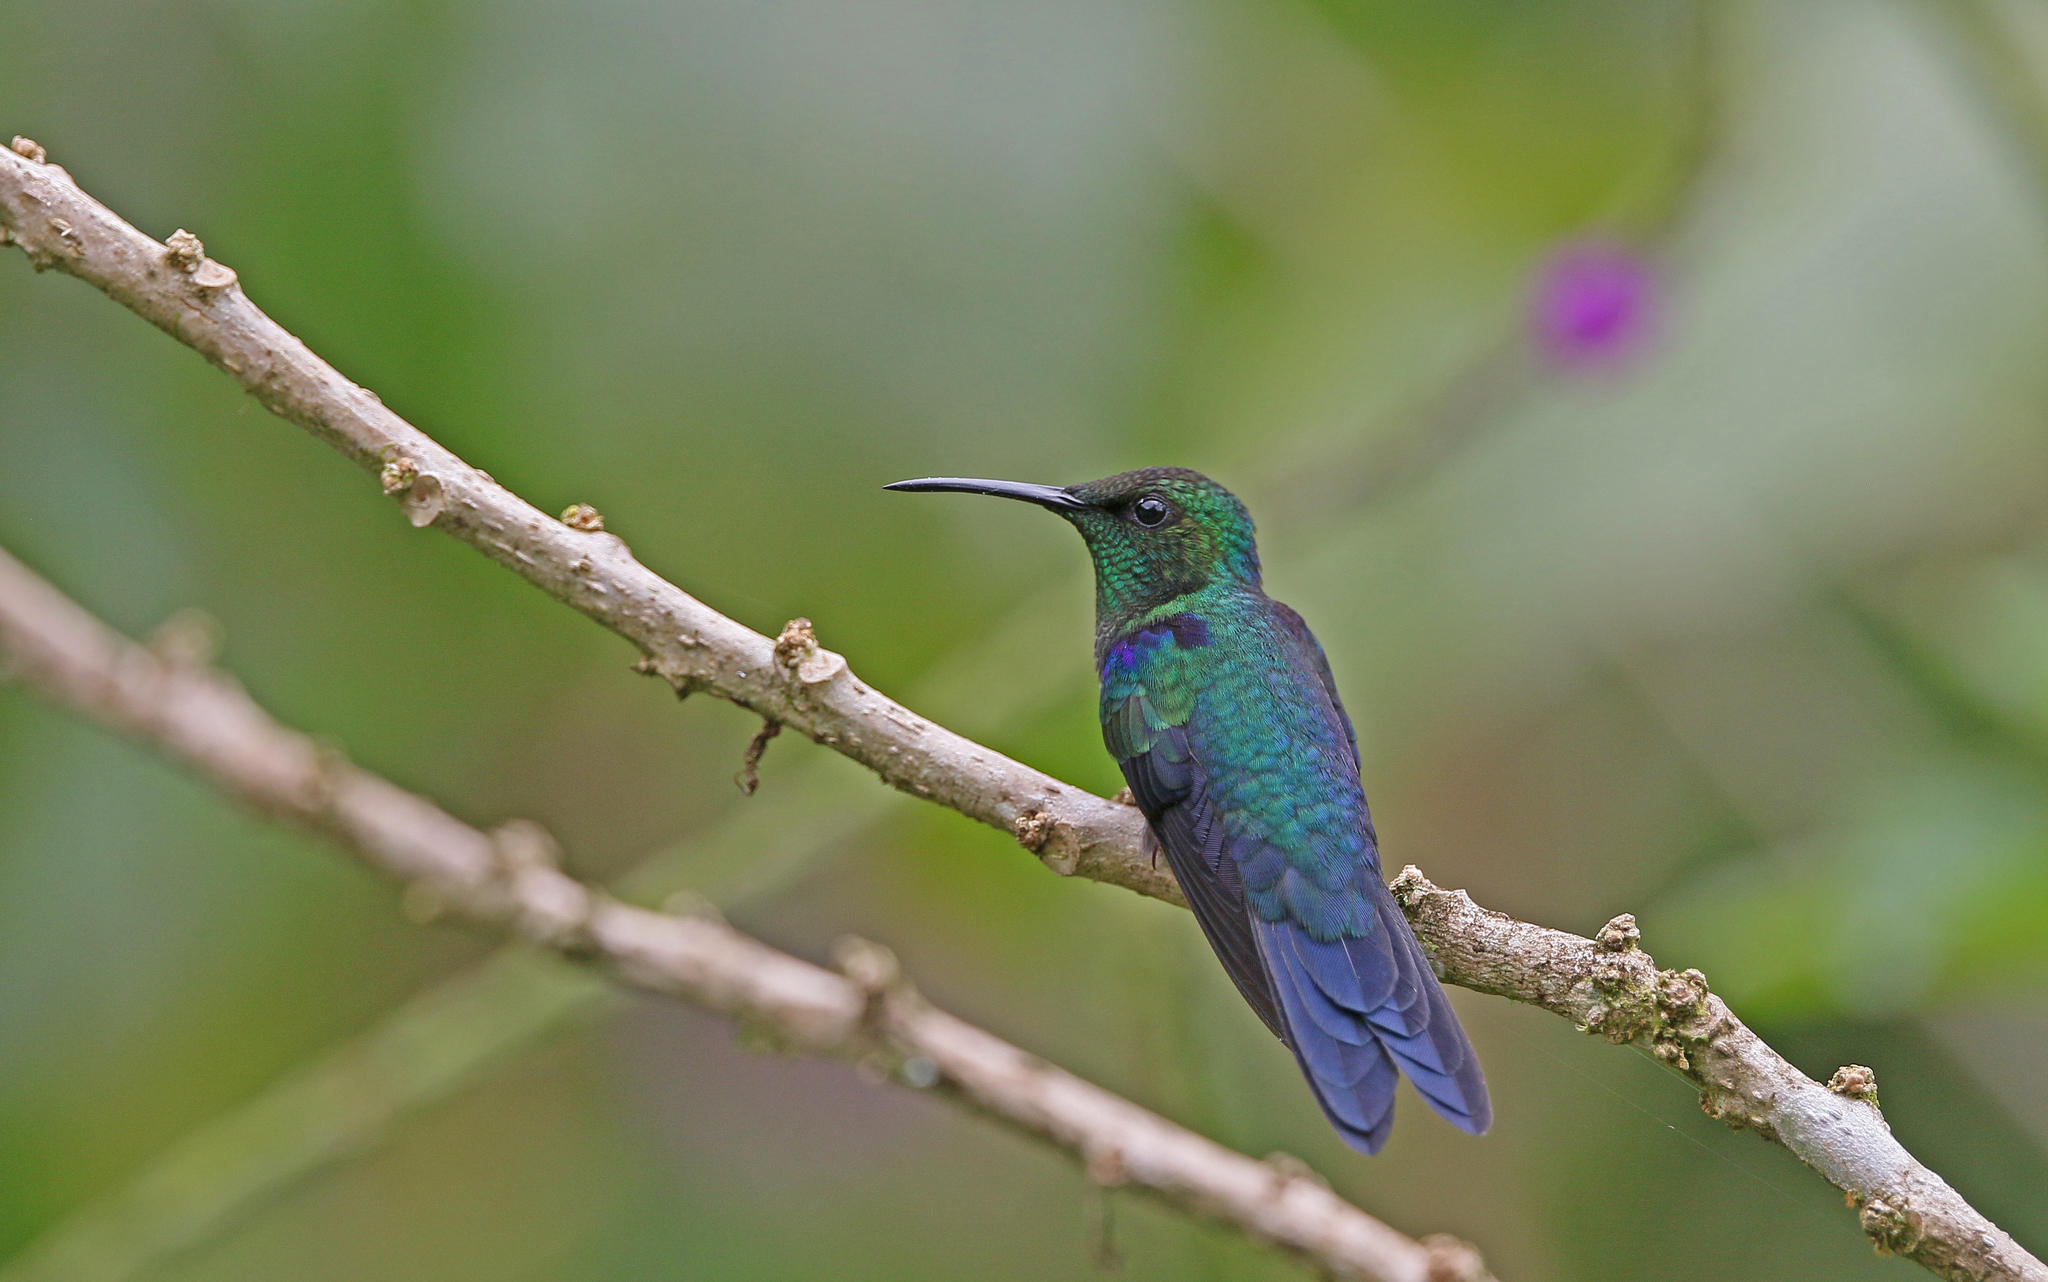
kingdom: Animalia
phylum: Chordata
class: Aves
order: Apodiformes
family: Trochilidae
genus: Thalurania
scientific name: Thalurania furcata
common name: Fork-tailed woodnymph
